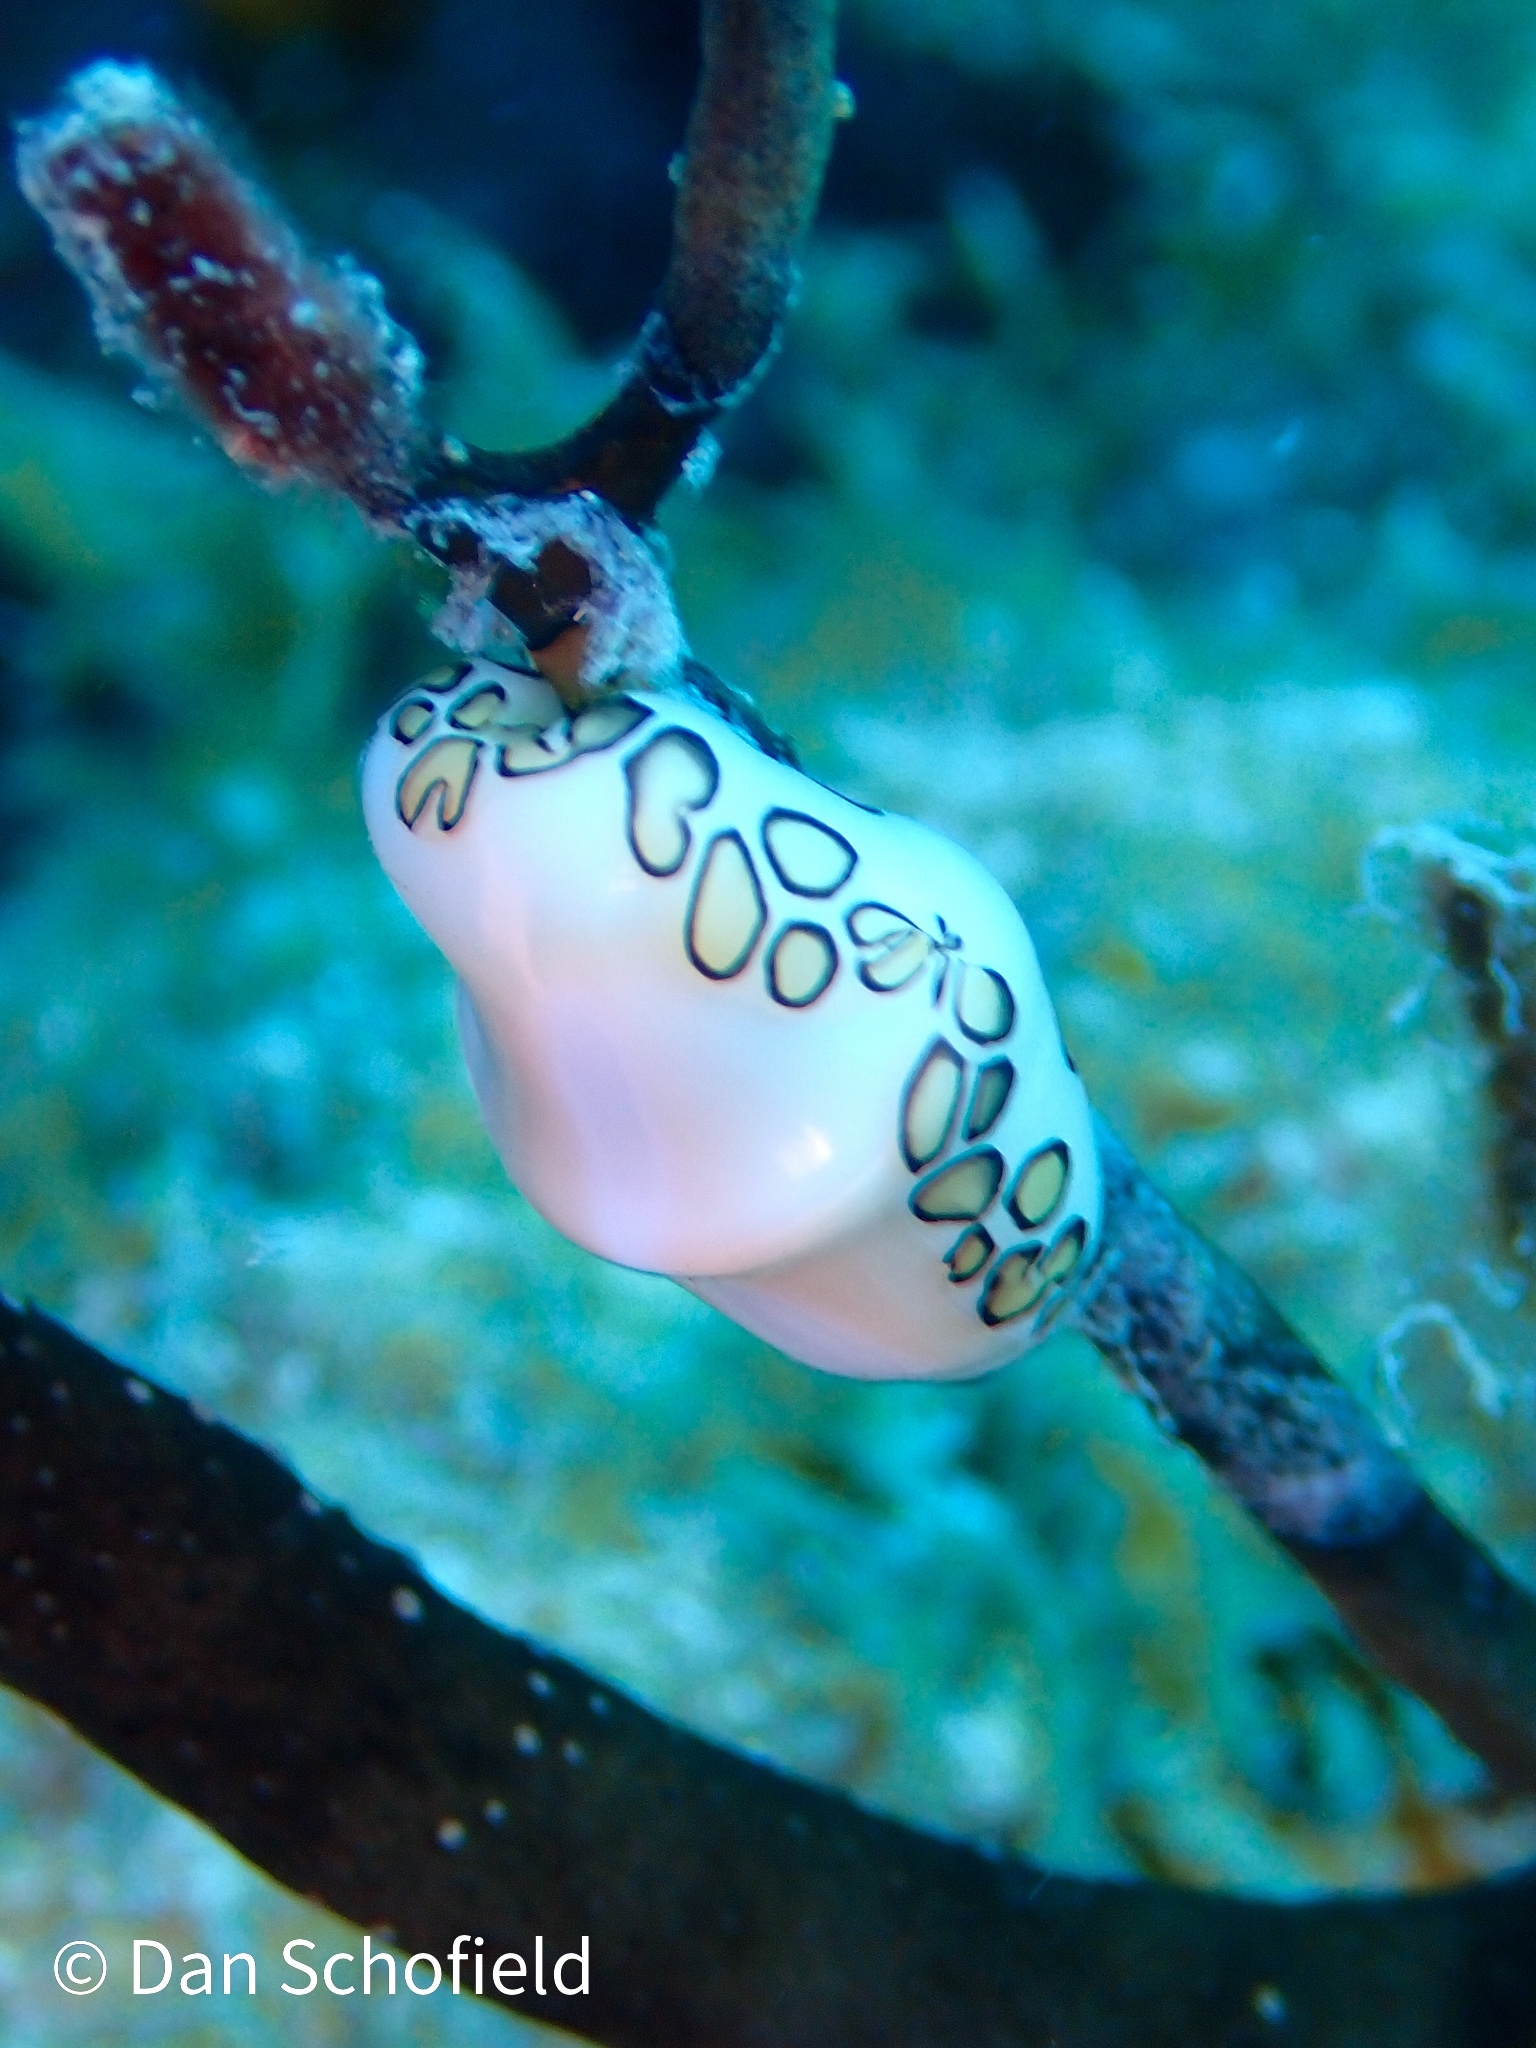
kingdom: Animalia
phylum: Mollusca
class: Gastropoda
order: Littorinimorpha
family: Ovulidae
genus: Cyphoma
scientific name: Cyphoma gibbosum
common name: Flamingo tongue
